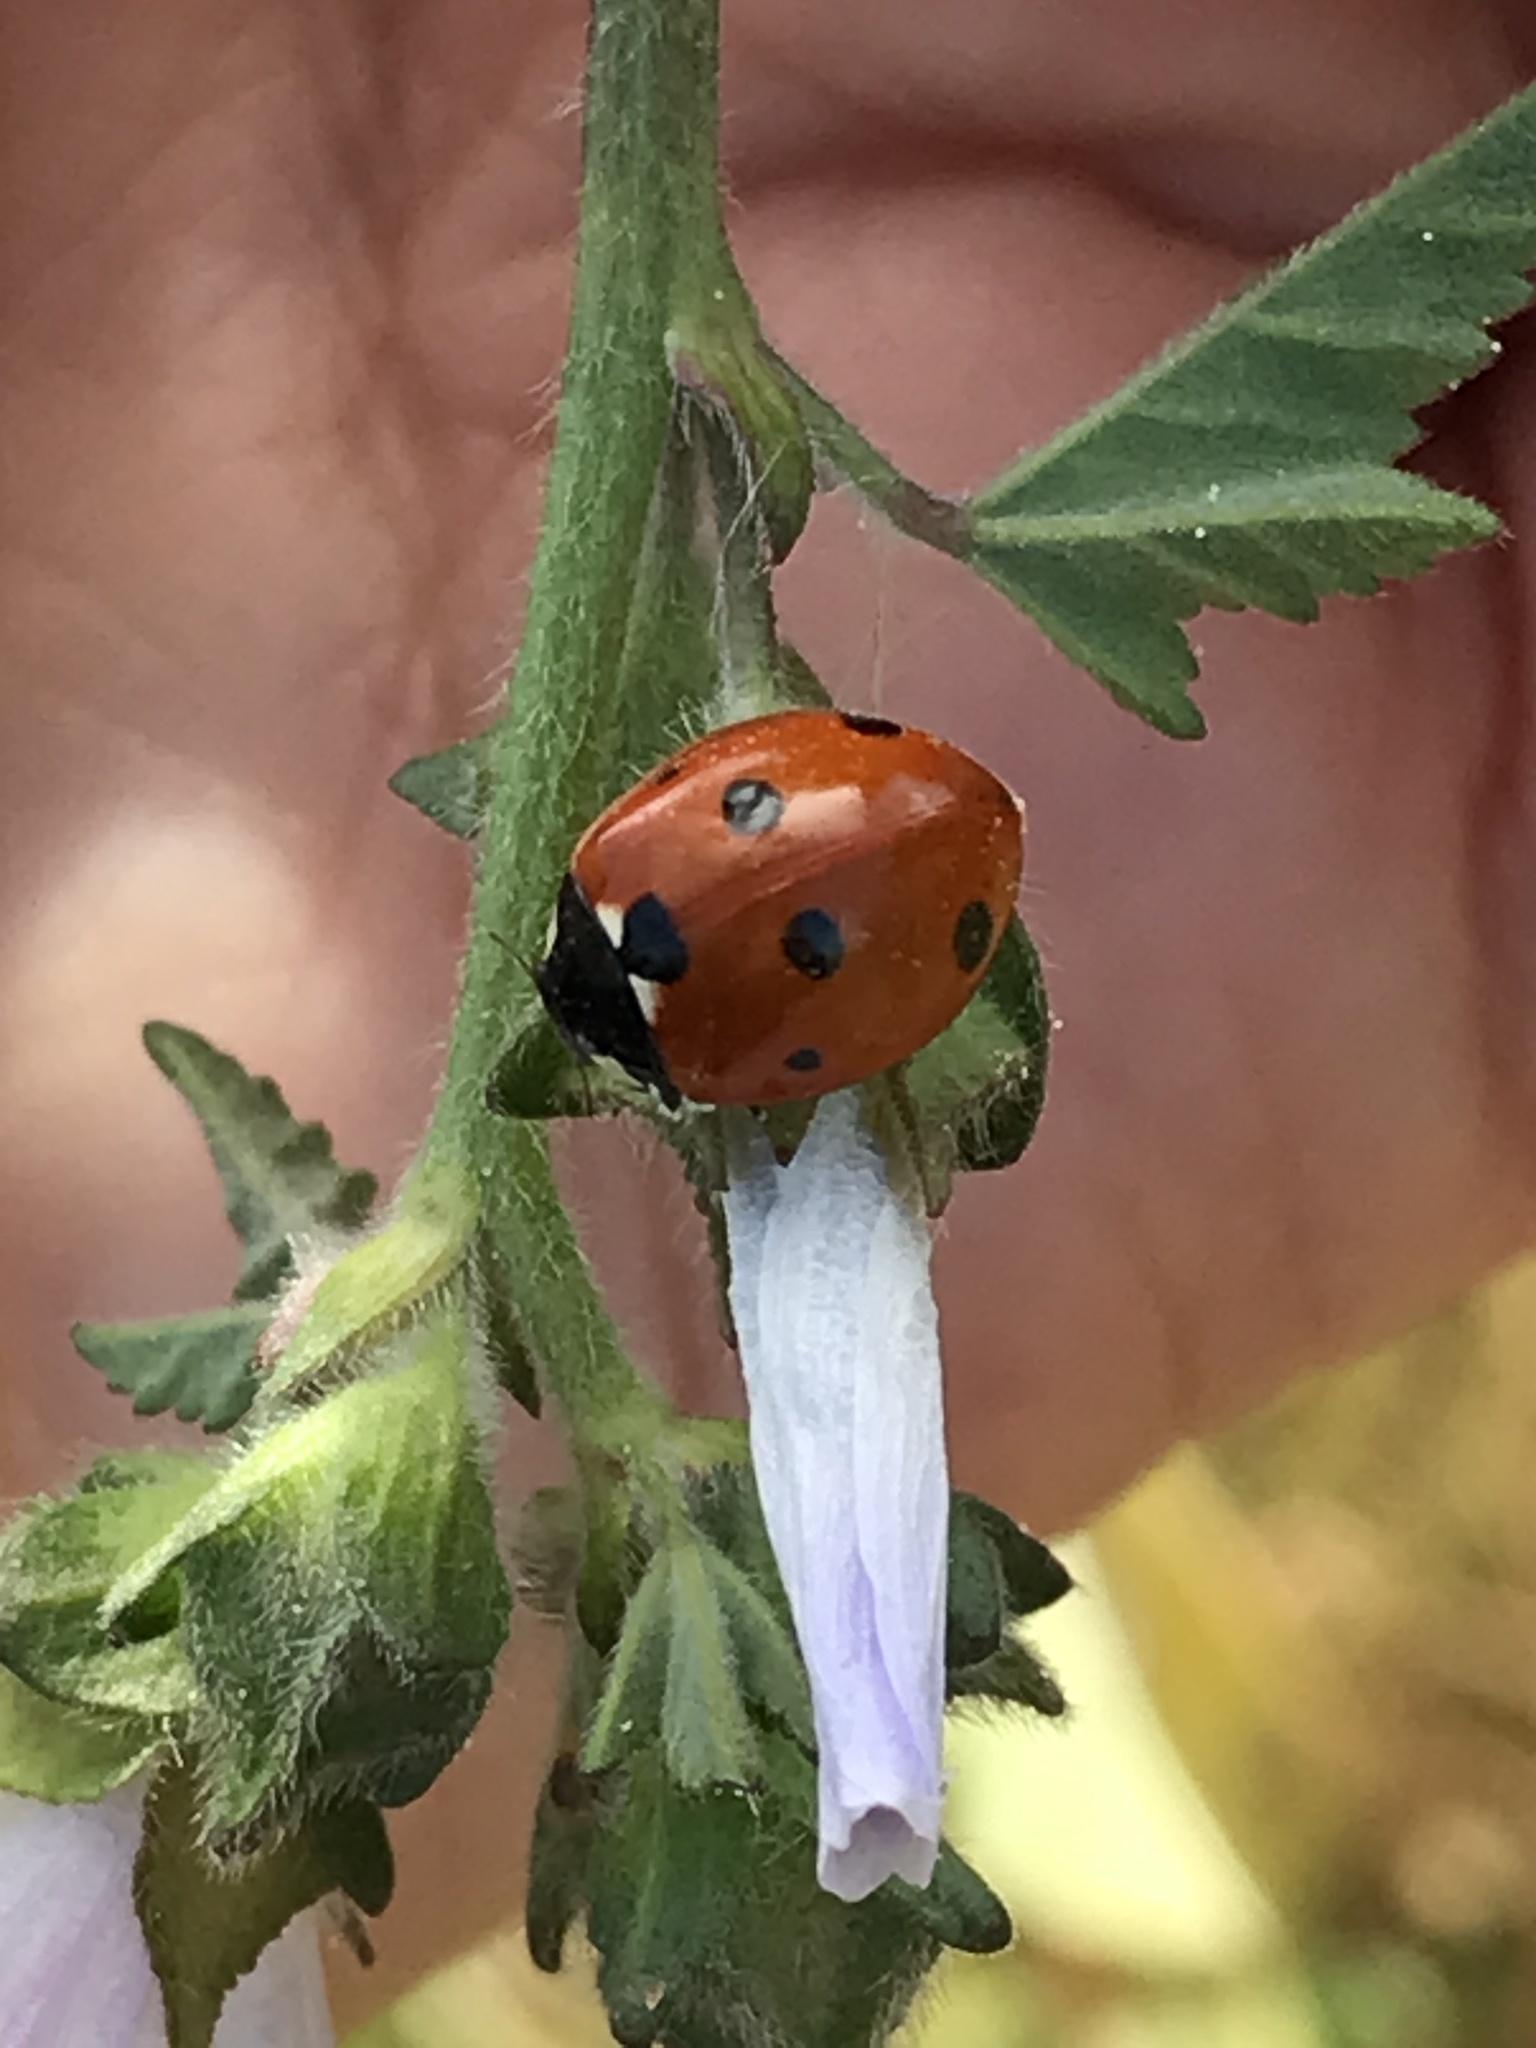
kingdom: Animalia
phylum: Arthropoda
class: Insecta
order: Coleoptera
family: Coccinellidae
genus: Coccinella
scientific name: Coccinella septempunctata
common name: Sevenspotted lady beetle
